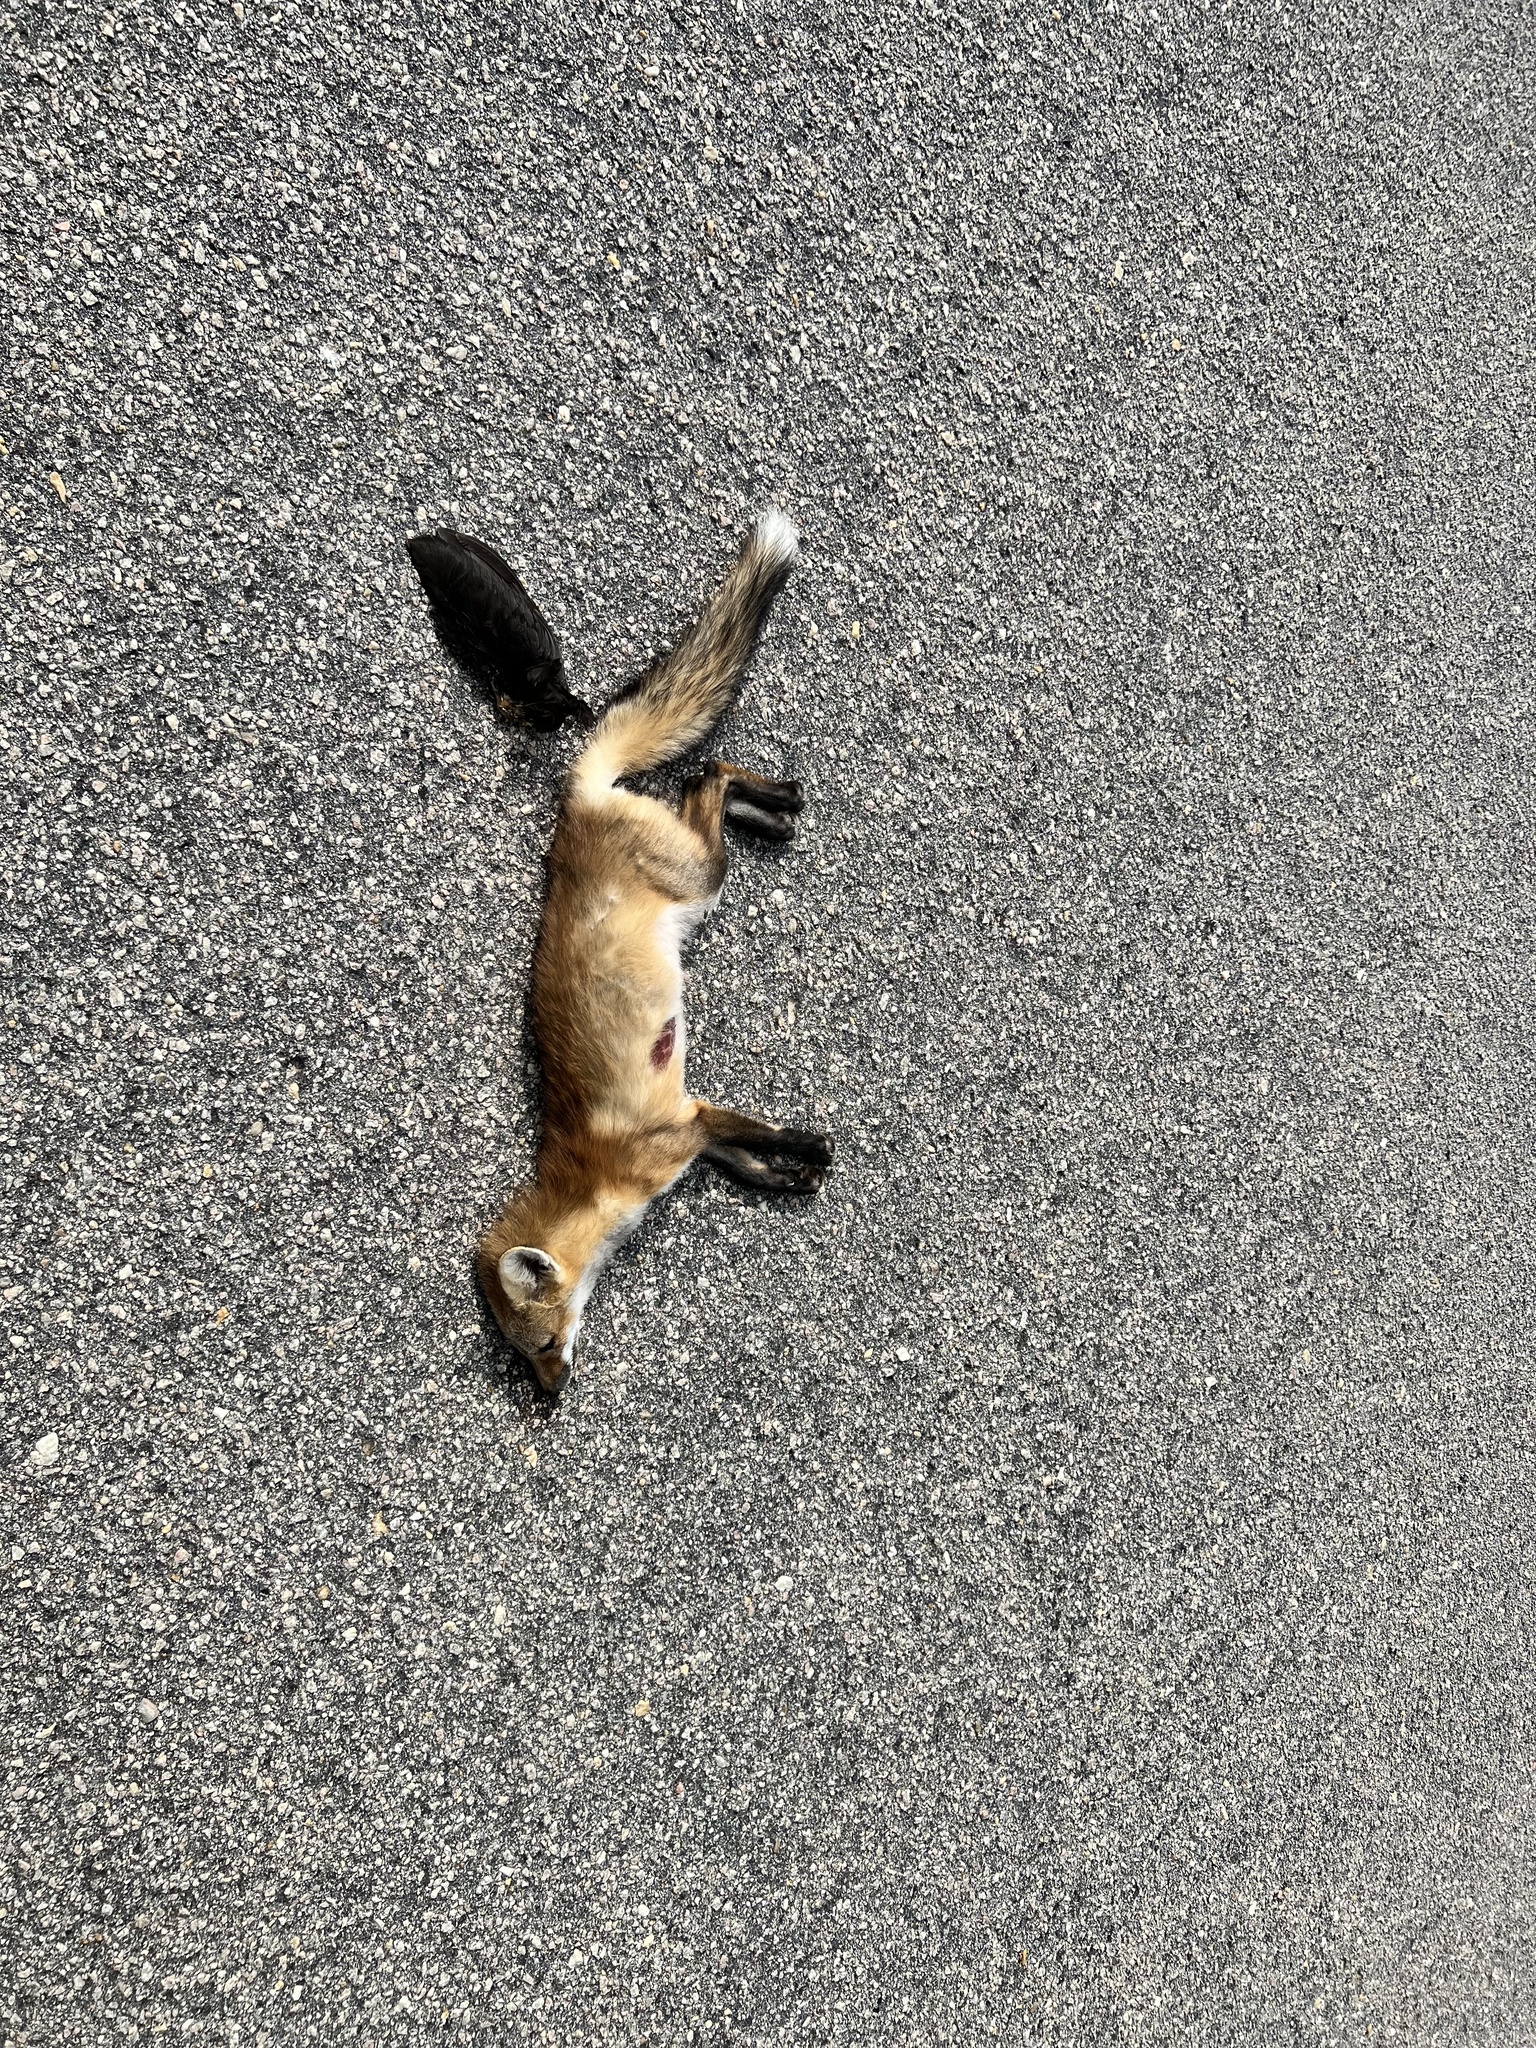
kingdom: Animalia
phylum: Chordata
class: Mammalia
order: Carnivora
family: Canidae
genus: Vulpes
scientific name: Vulpes vulpes
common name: Red fox
